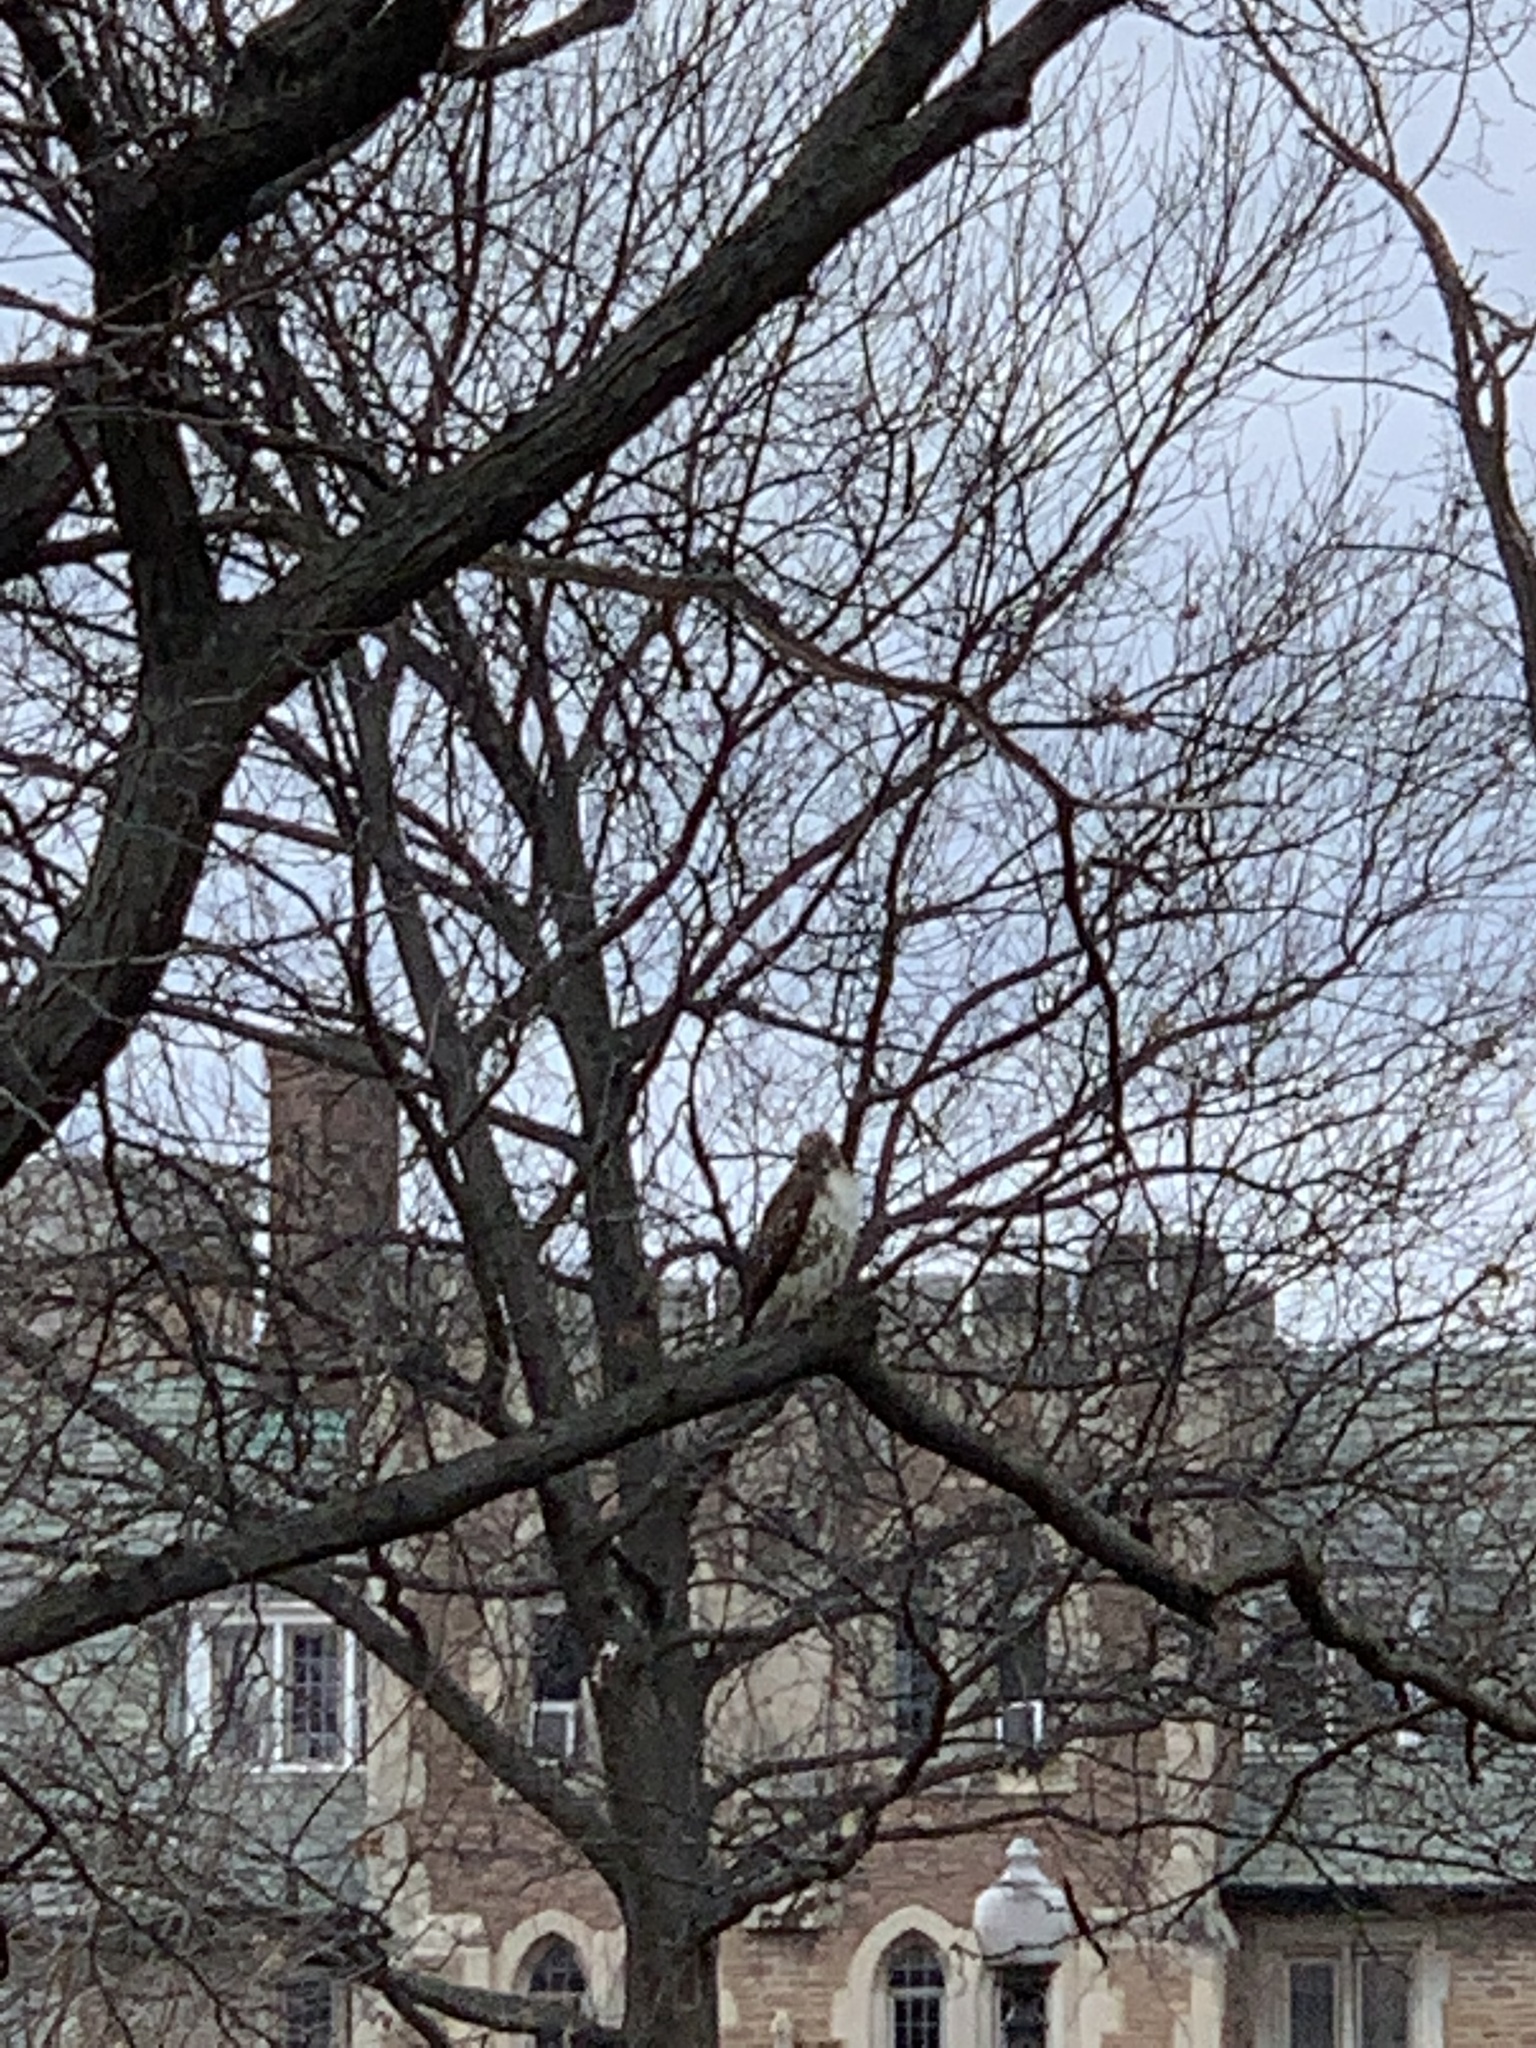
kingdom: Animalia
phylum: Chordata
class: Aves
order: Accipitriformes
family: Accipitridae
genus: Buteo
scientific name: Buteo jamaicensis
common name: Red-tailed hawk
